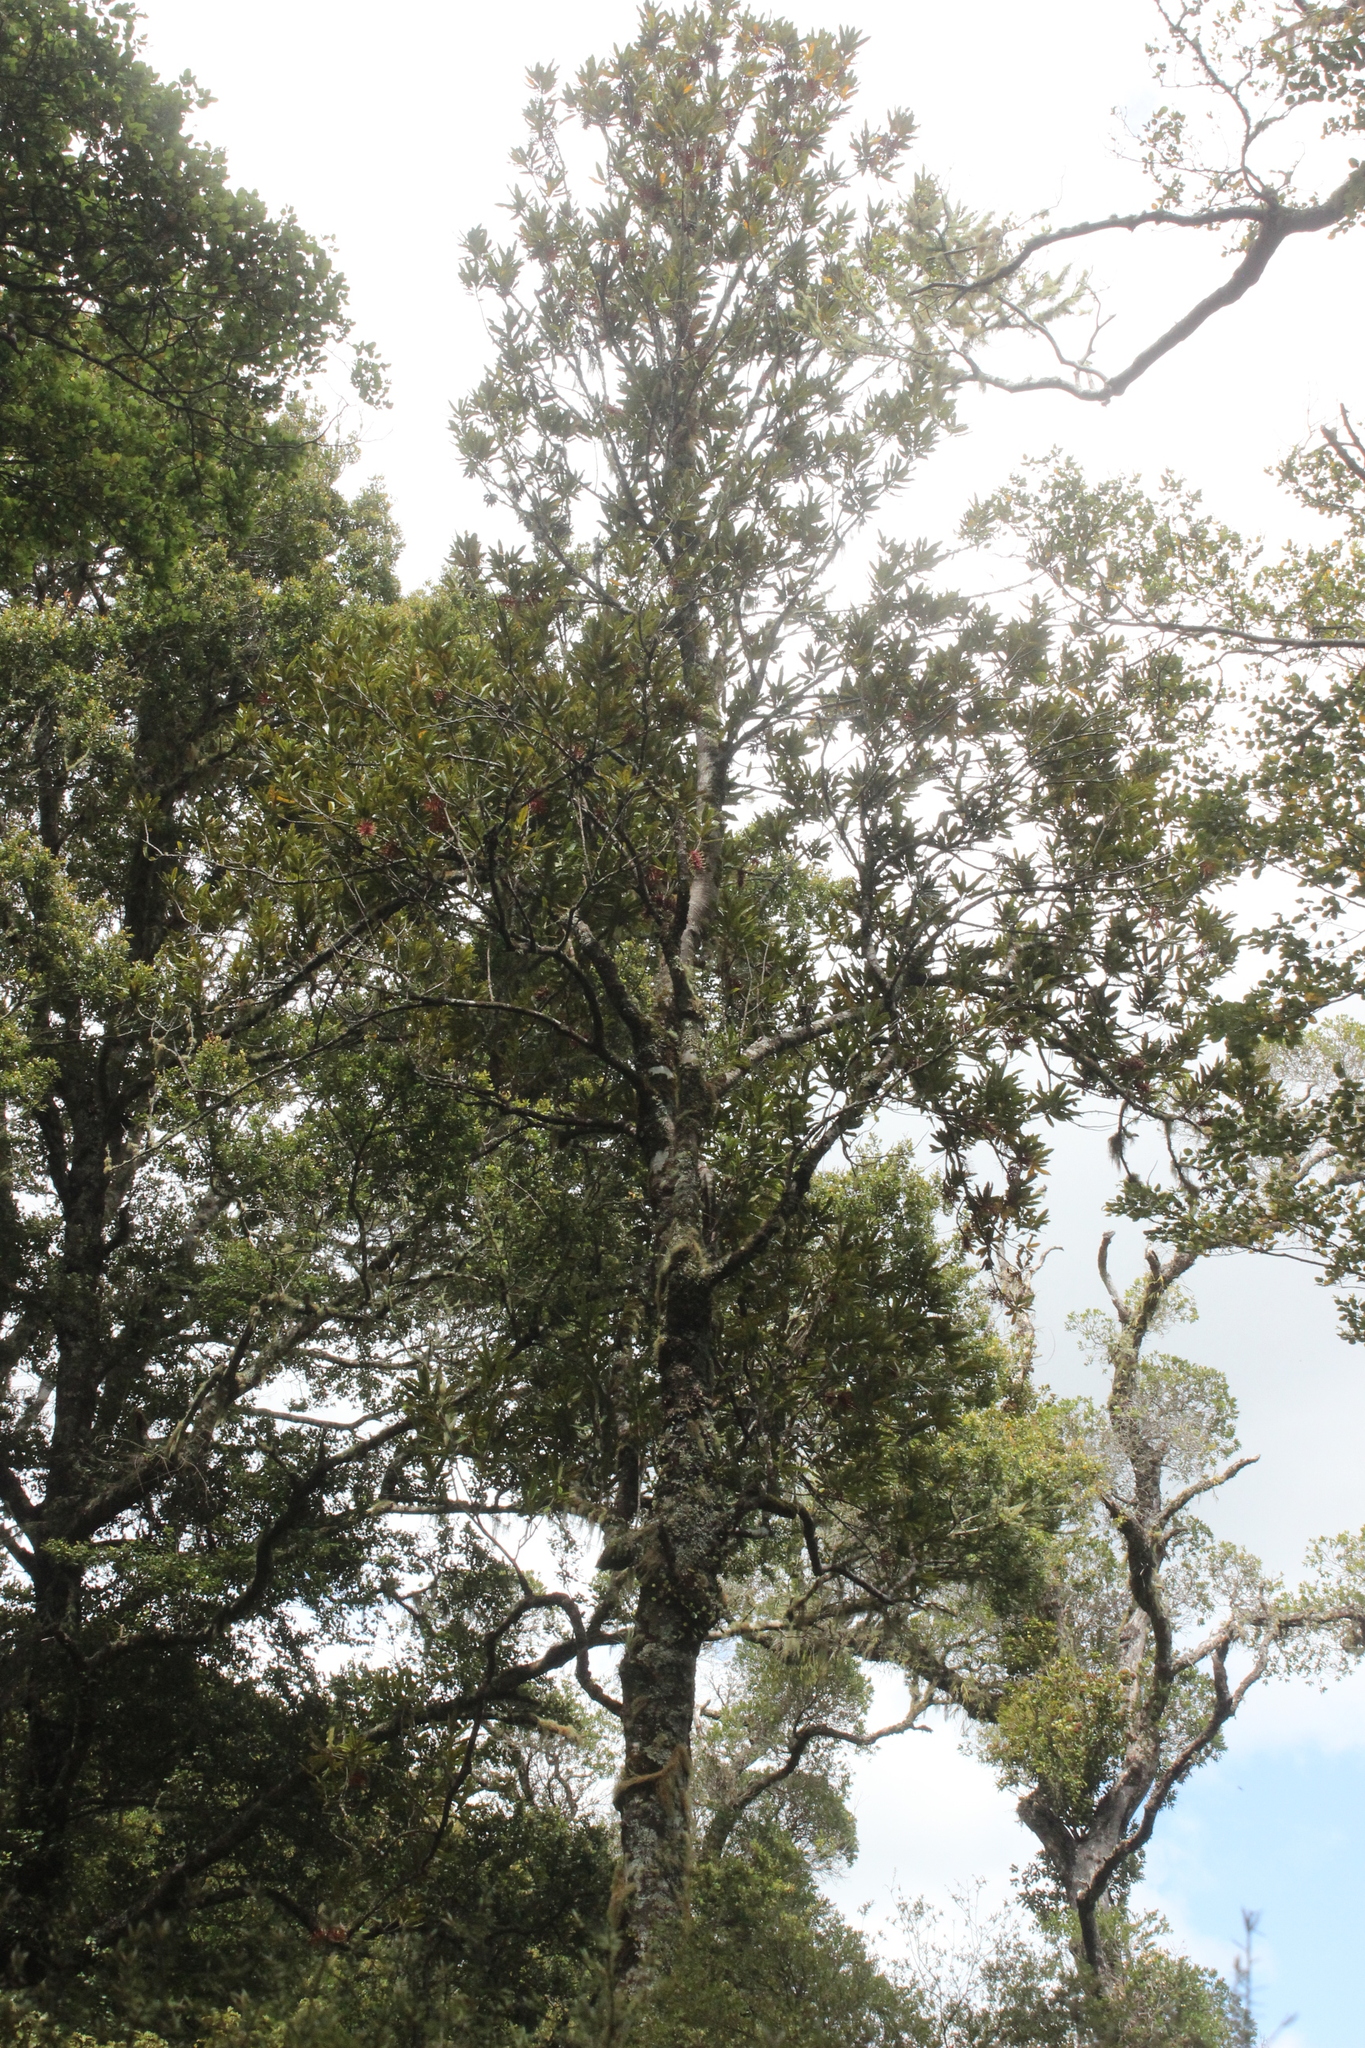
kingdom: Plantae
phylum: Tracheophyta
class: Magnoliopsida
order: Proteales
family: Proteaceae
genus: Knightia
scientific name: Knightia excelsa
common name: New zealand-honeysuckle
